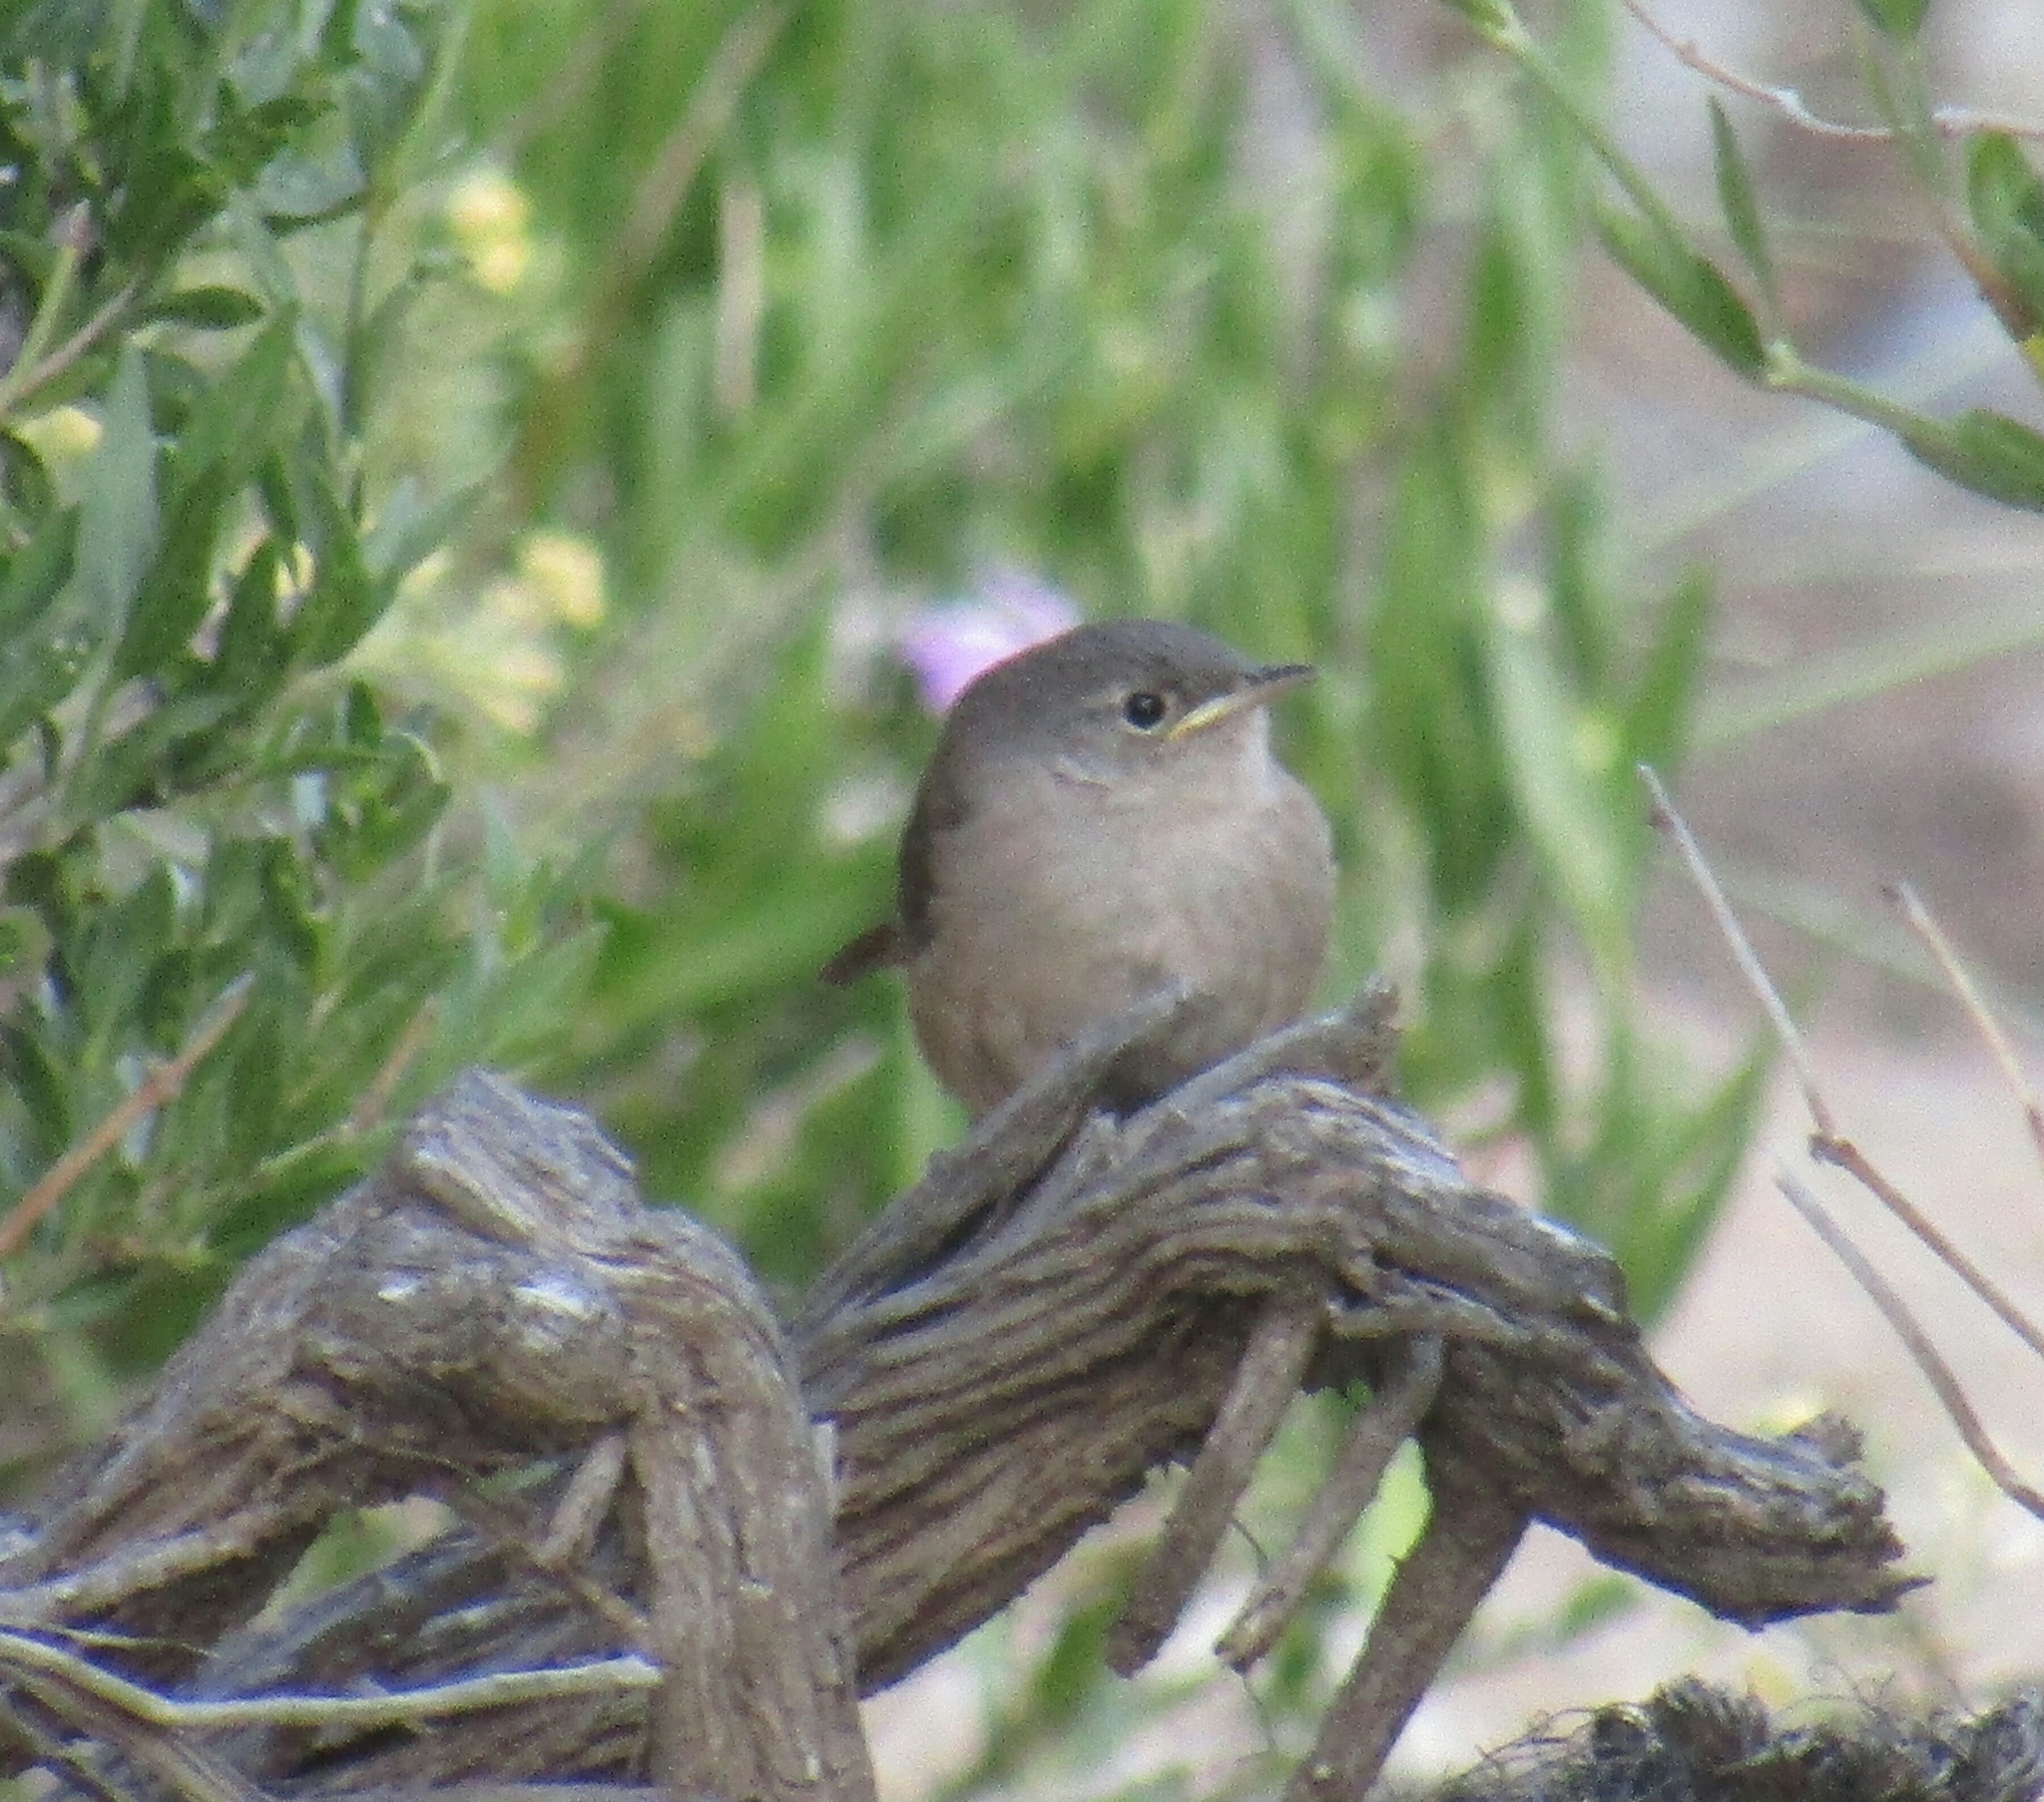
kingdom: Animalia
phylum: Chordata
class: Aves
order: Passeriformes
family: Troglodytidae
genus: Troglodytes
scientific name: Troglodytes aedon
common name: House wren
